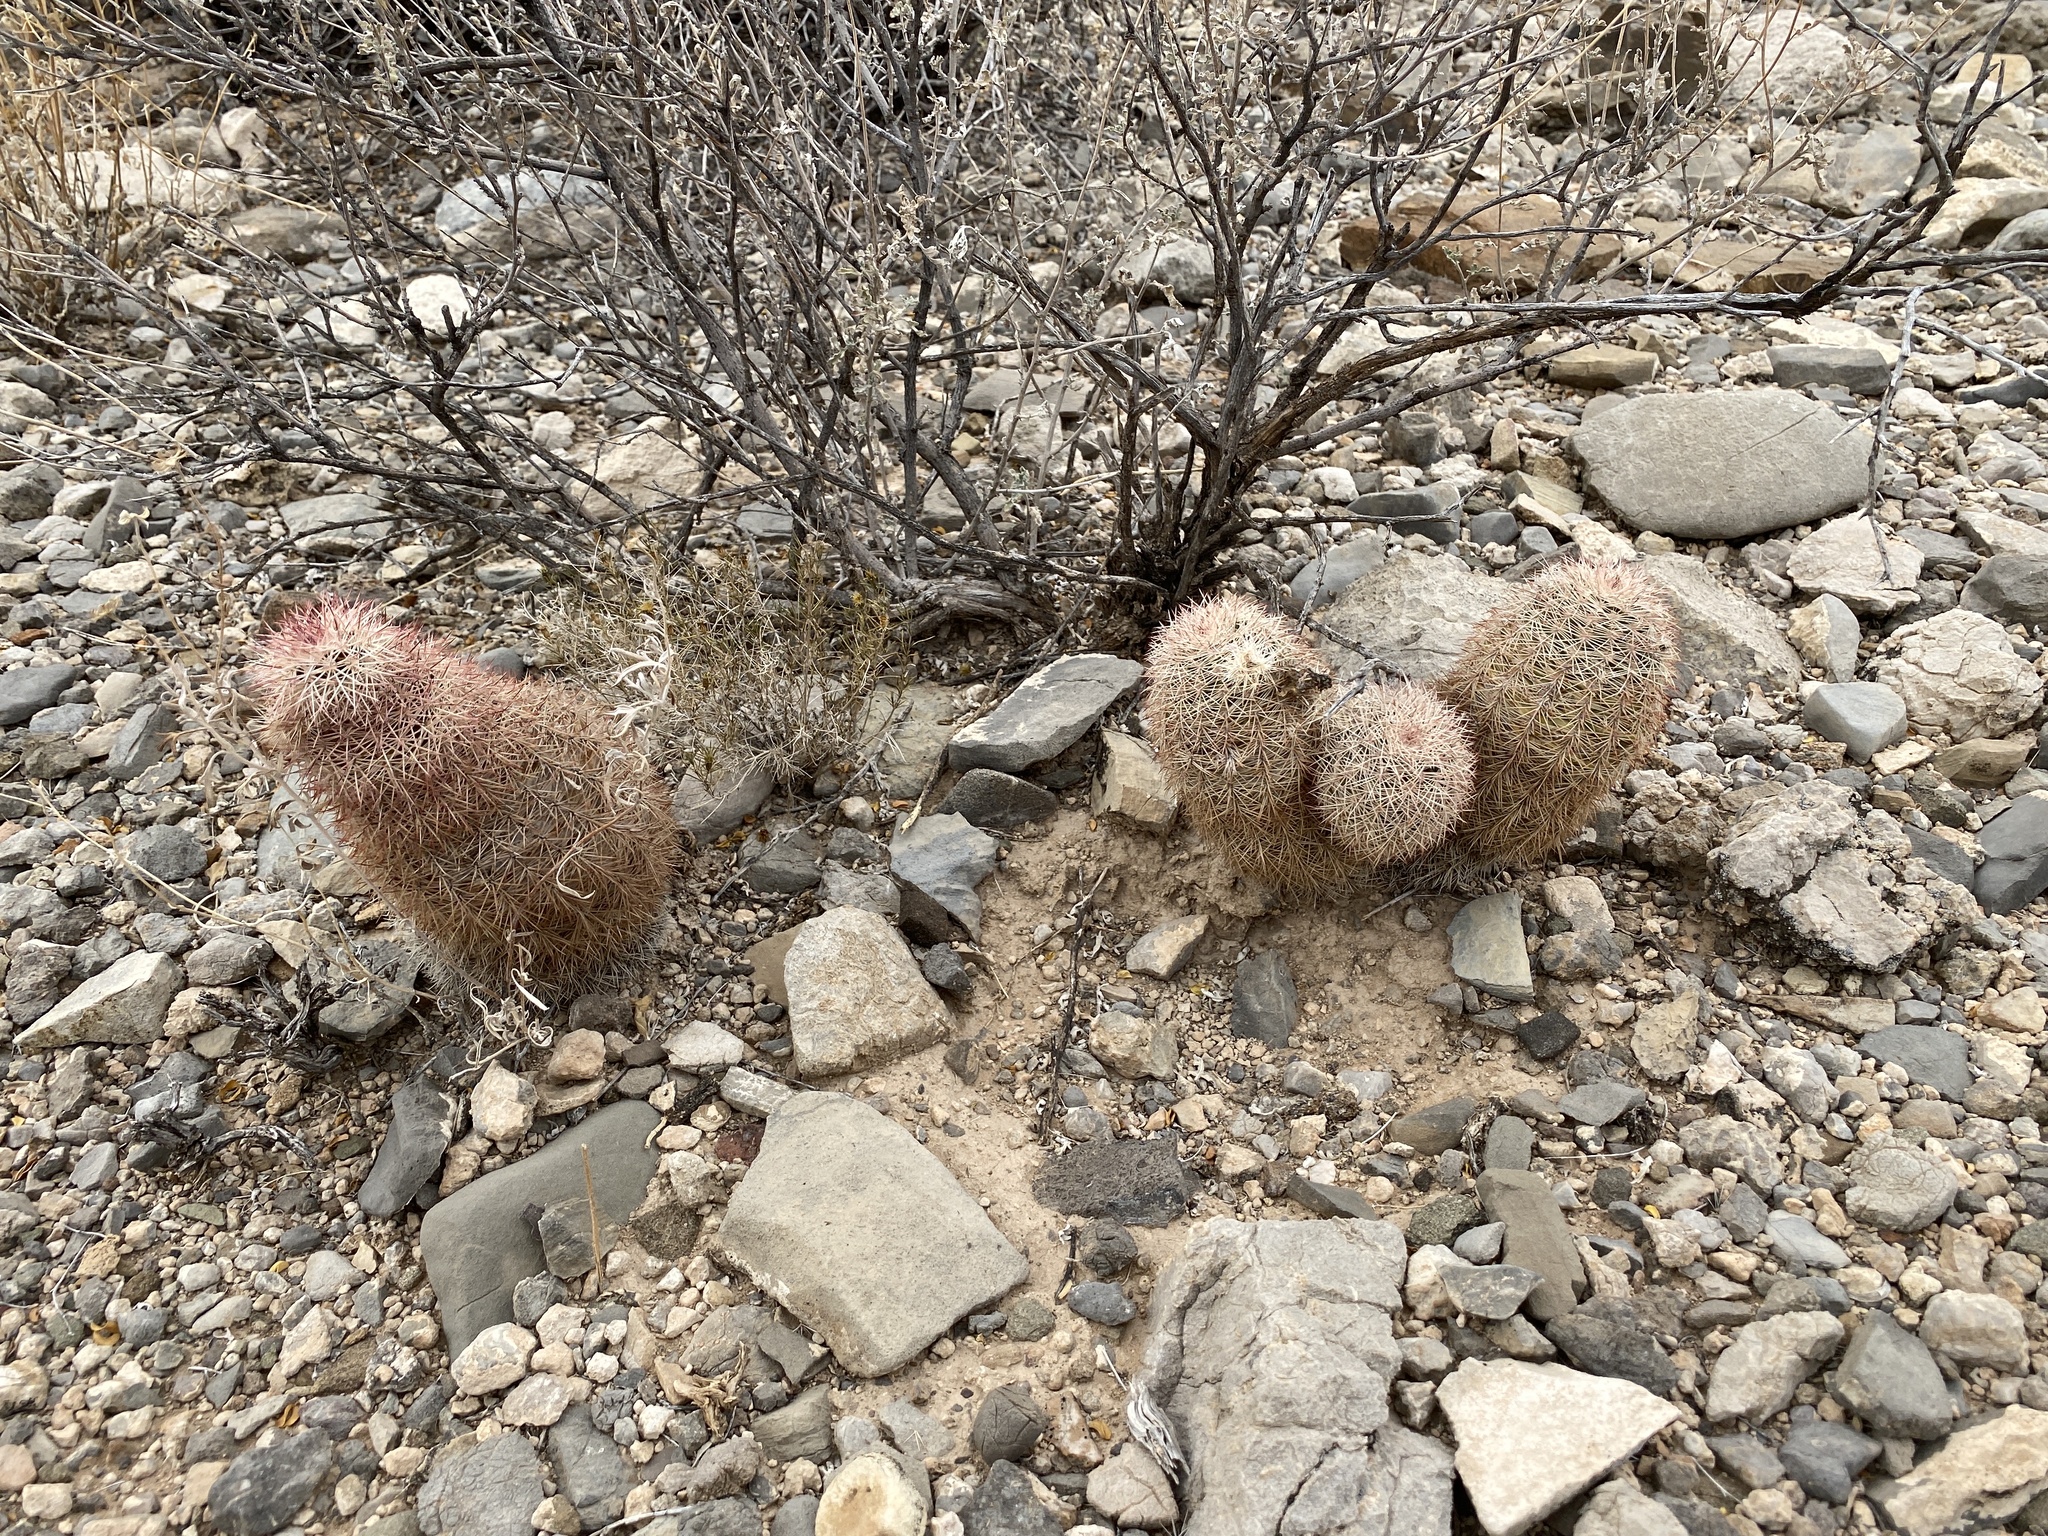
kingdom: Plantae
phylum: Tracheophyta
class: Magnoliopsida
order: Caryophyllales
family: Cactaceae
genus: Echinocereus
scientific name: Echinocereus dasyacanthus
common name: Spiny hedgehog cactus
